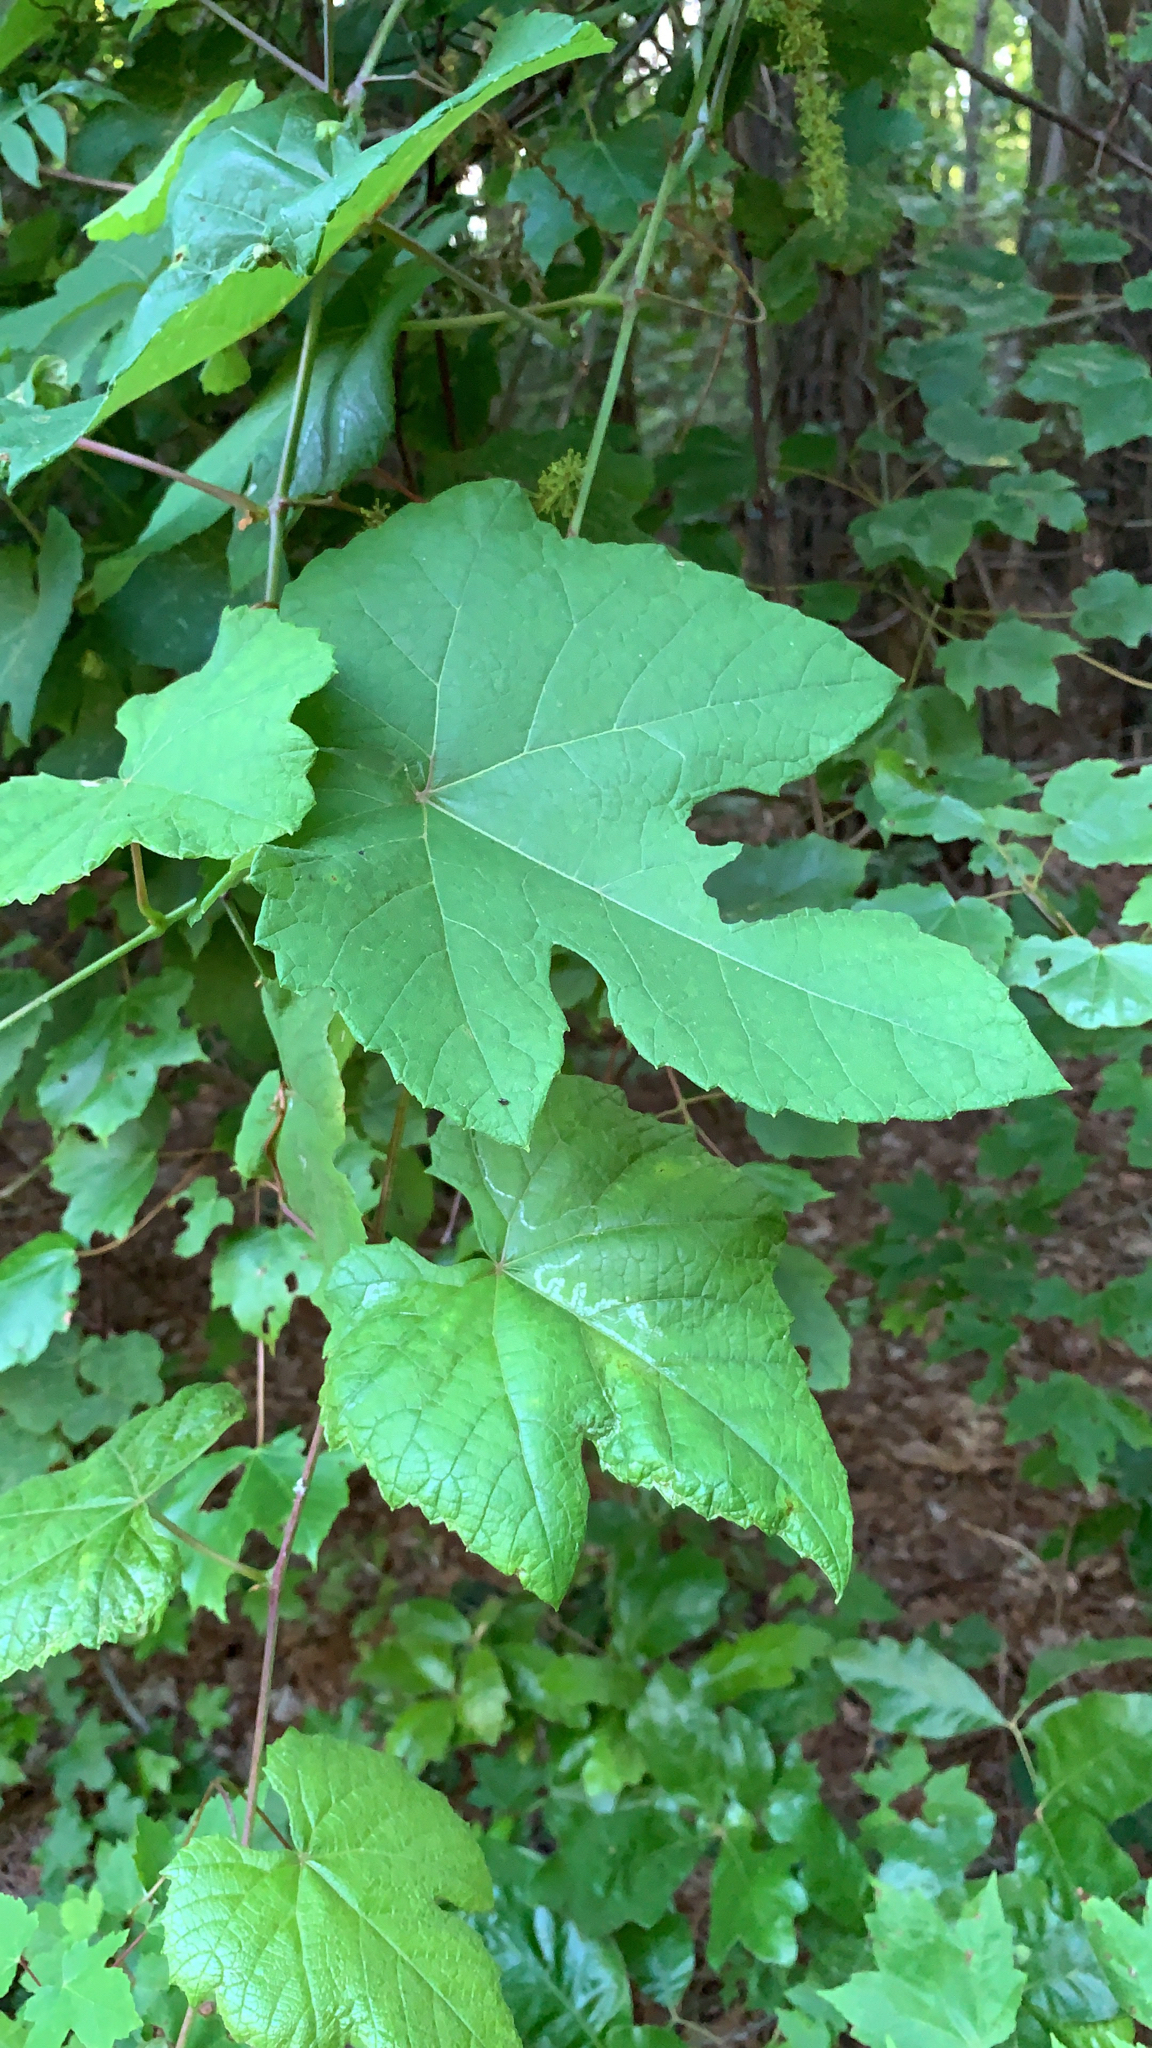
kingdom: Plantae
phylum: Tracheophyta
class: Magnoliopsida
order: Vitales
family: Vitaceae
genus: Vitis
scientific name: Vitis aestivalis
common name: Pigeon grape
